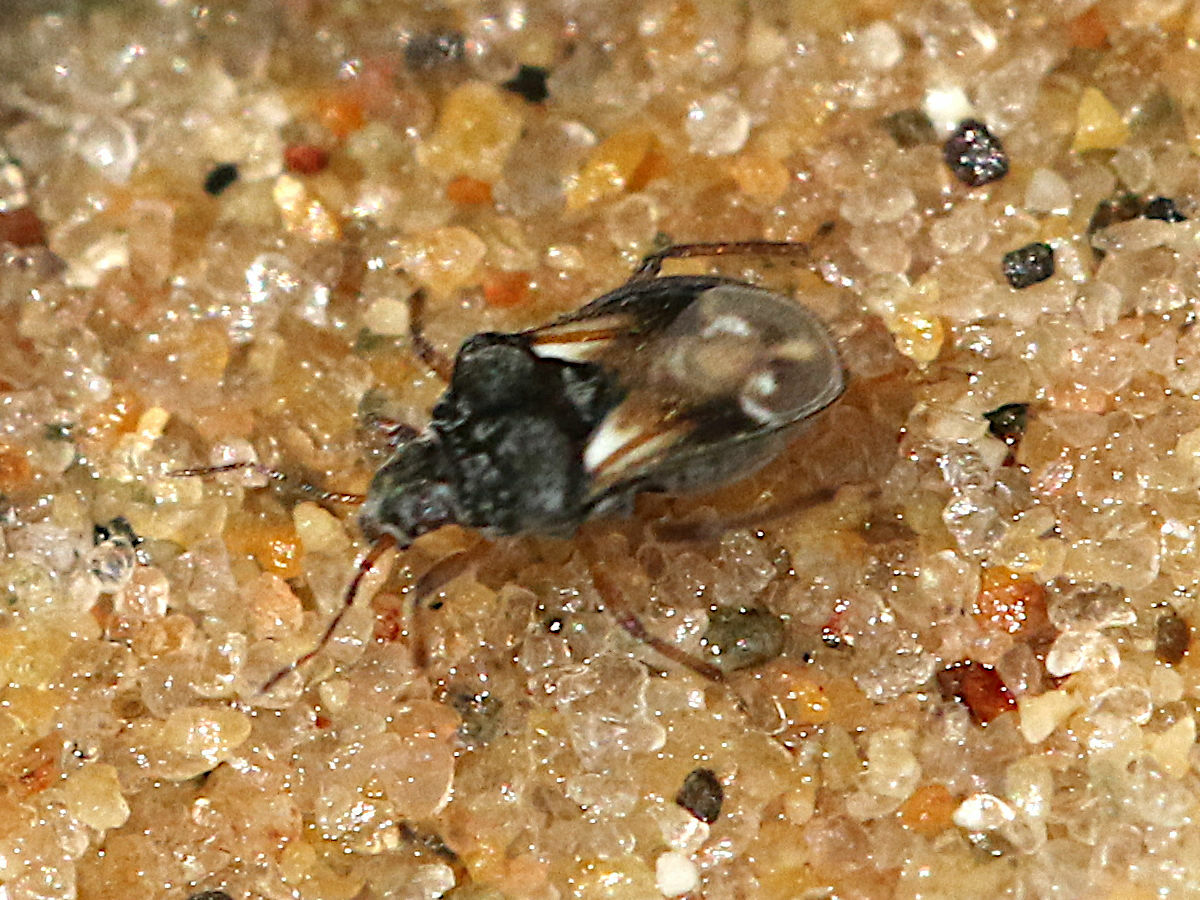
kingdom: Animalia
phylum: Arthropoda
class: Insecta
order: Hemiptera
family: Hebridae
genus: Hebrus
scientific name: Hebrus
